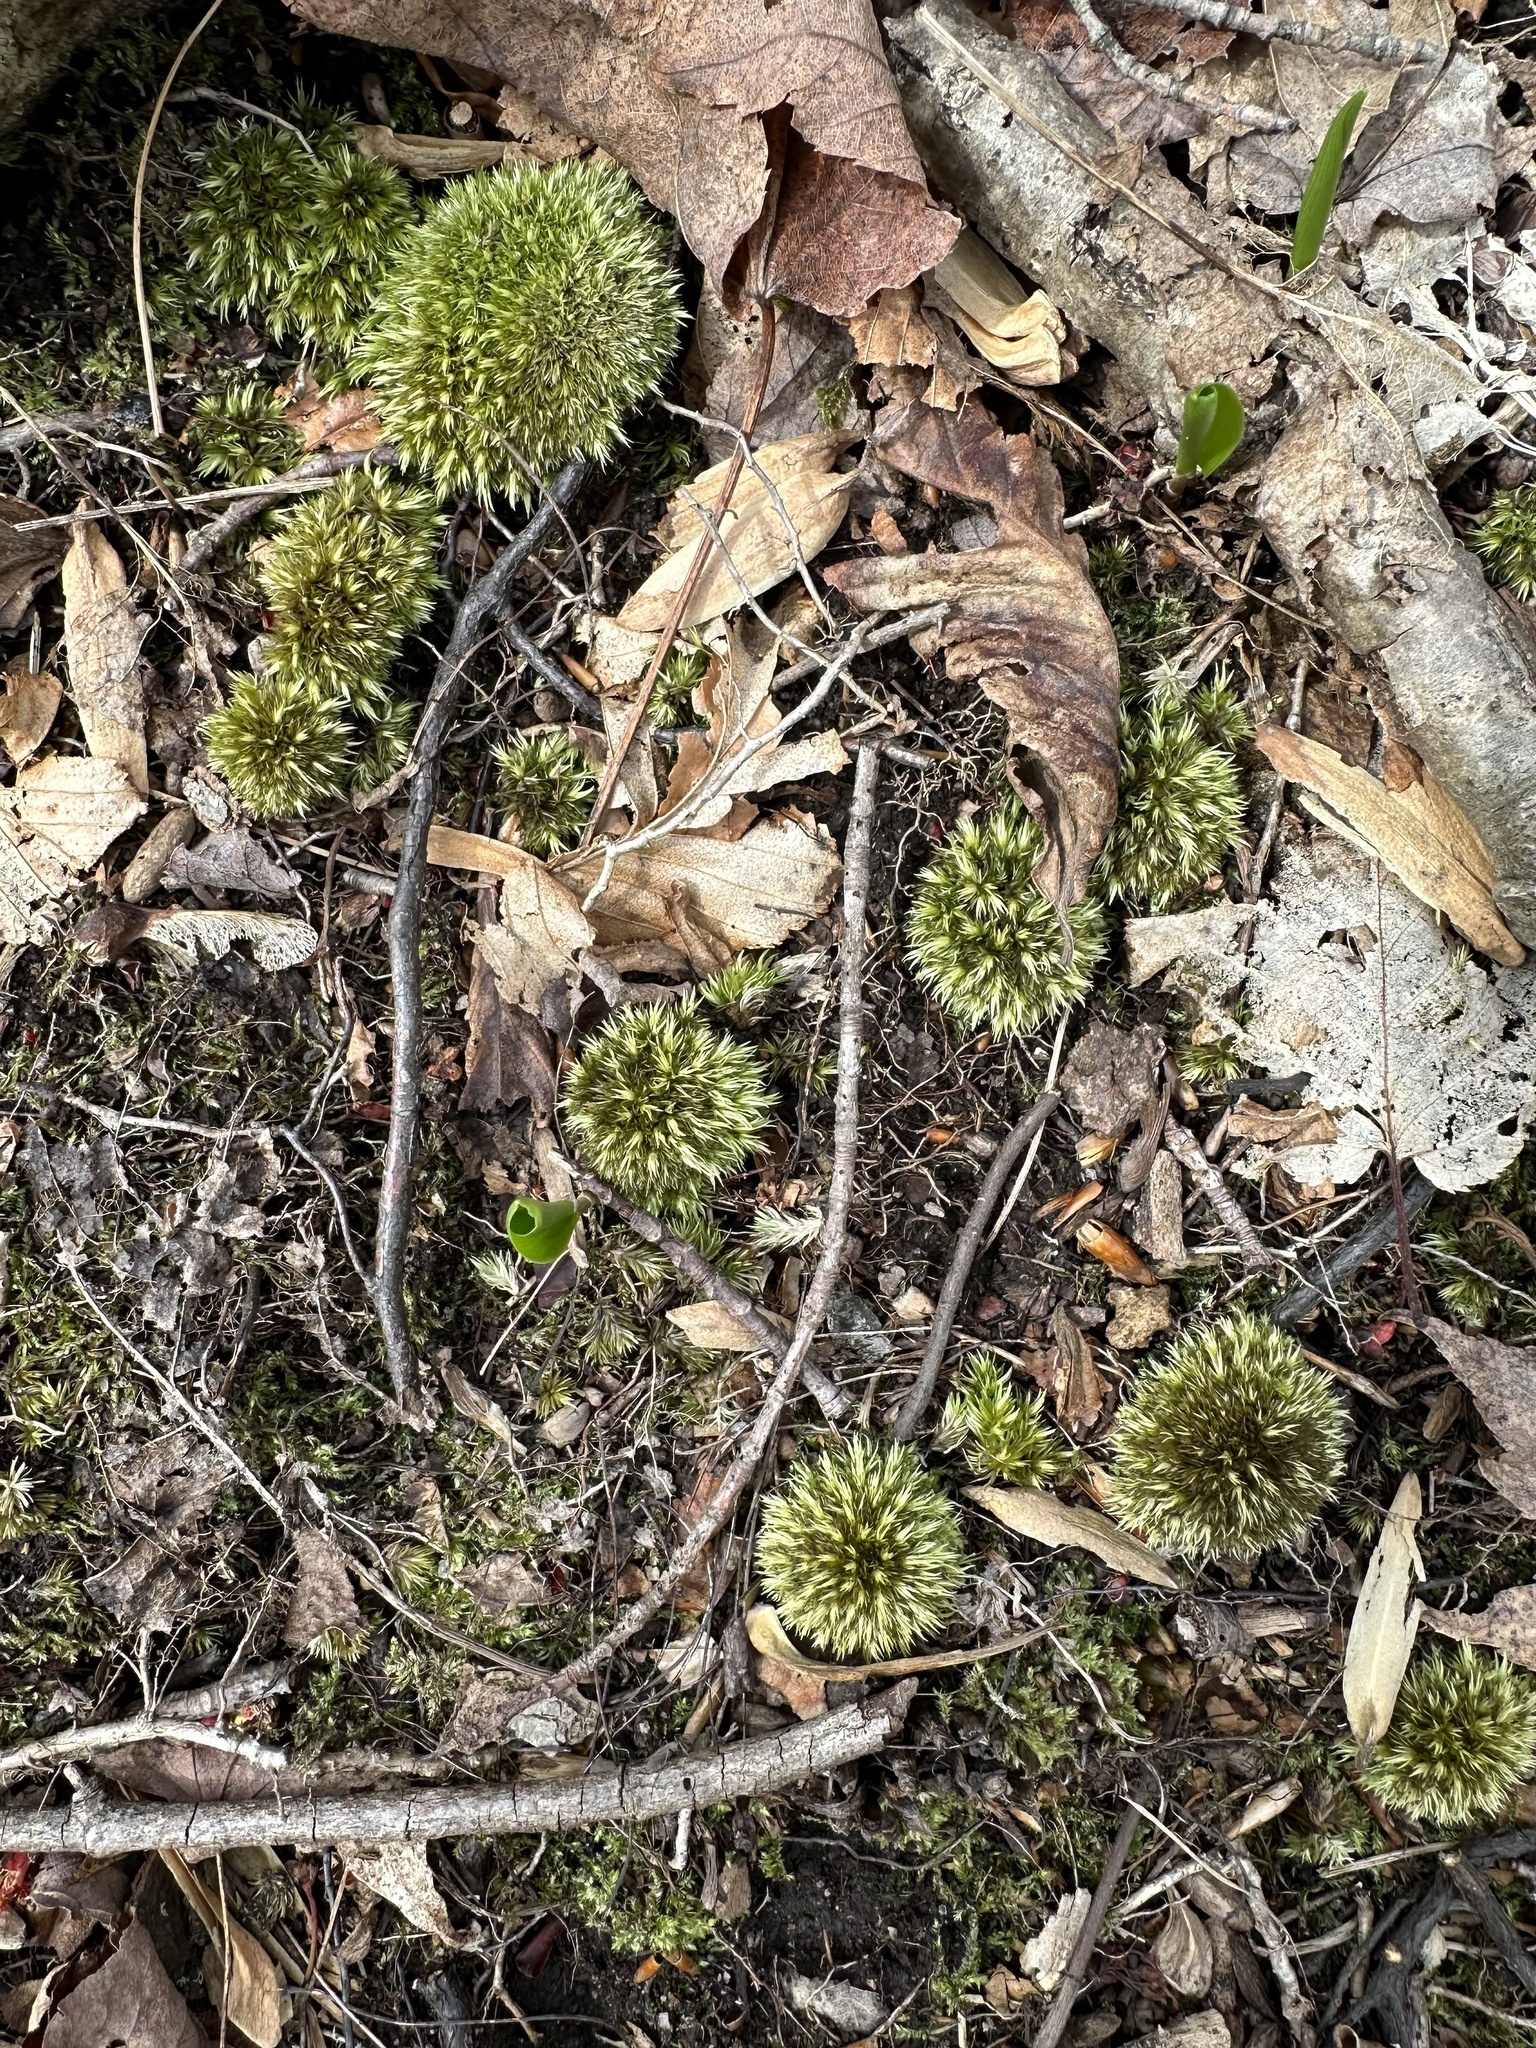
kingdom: Plantae
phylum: Bryophyta
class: Bryopsida
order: Dicranales
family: Leucobryaceae
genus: Leucobryum
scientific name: Leucobryum glaucum
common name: Large white-moss
